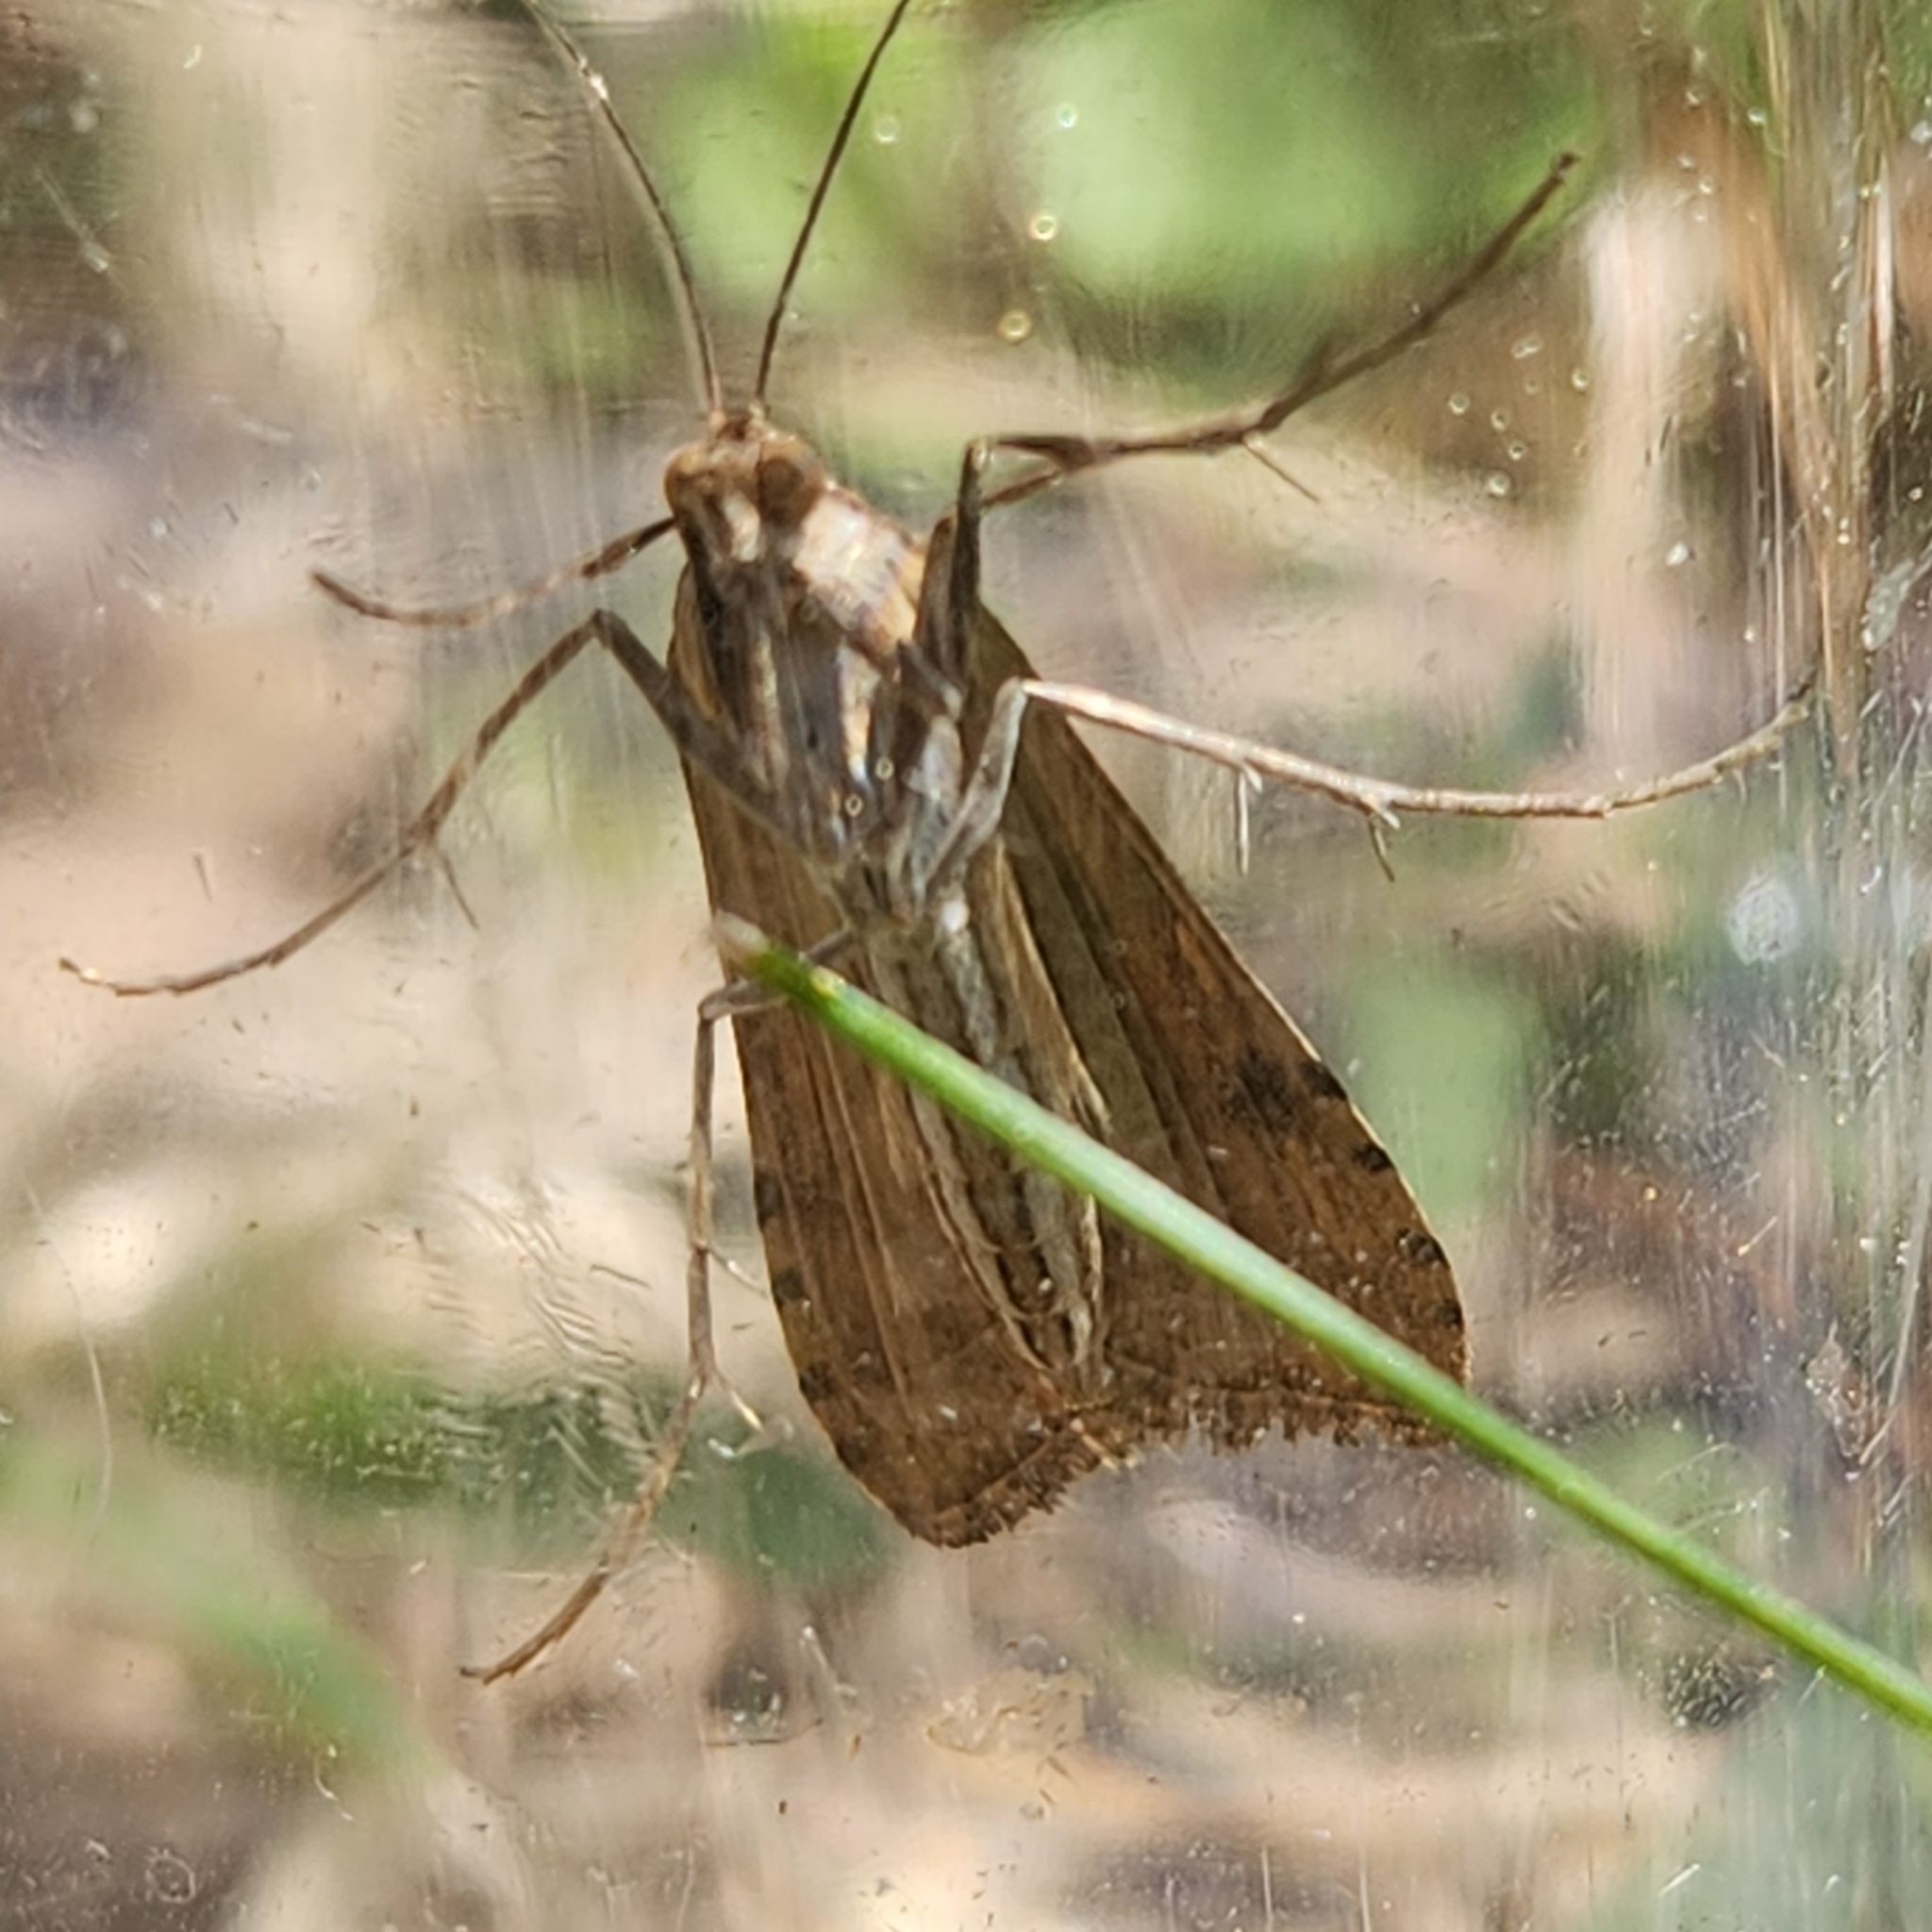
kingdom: Animalia
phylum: Arthropoda
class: Insecta
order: Lepidoptera
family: Crambidae
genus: Nomophila
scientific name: Nomophila nearctica
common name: American rush veneer
